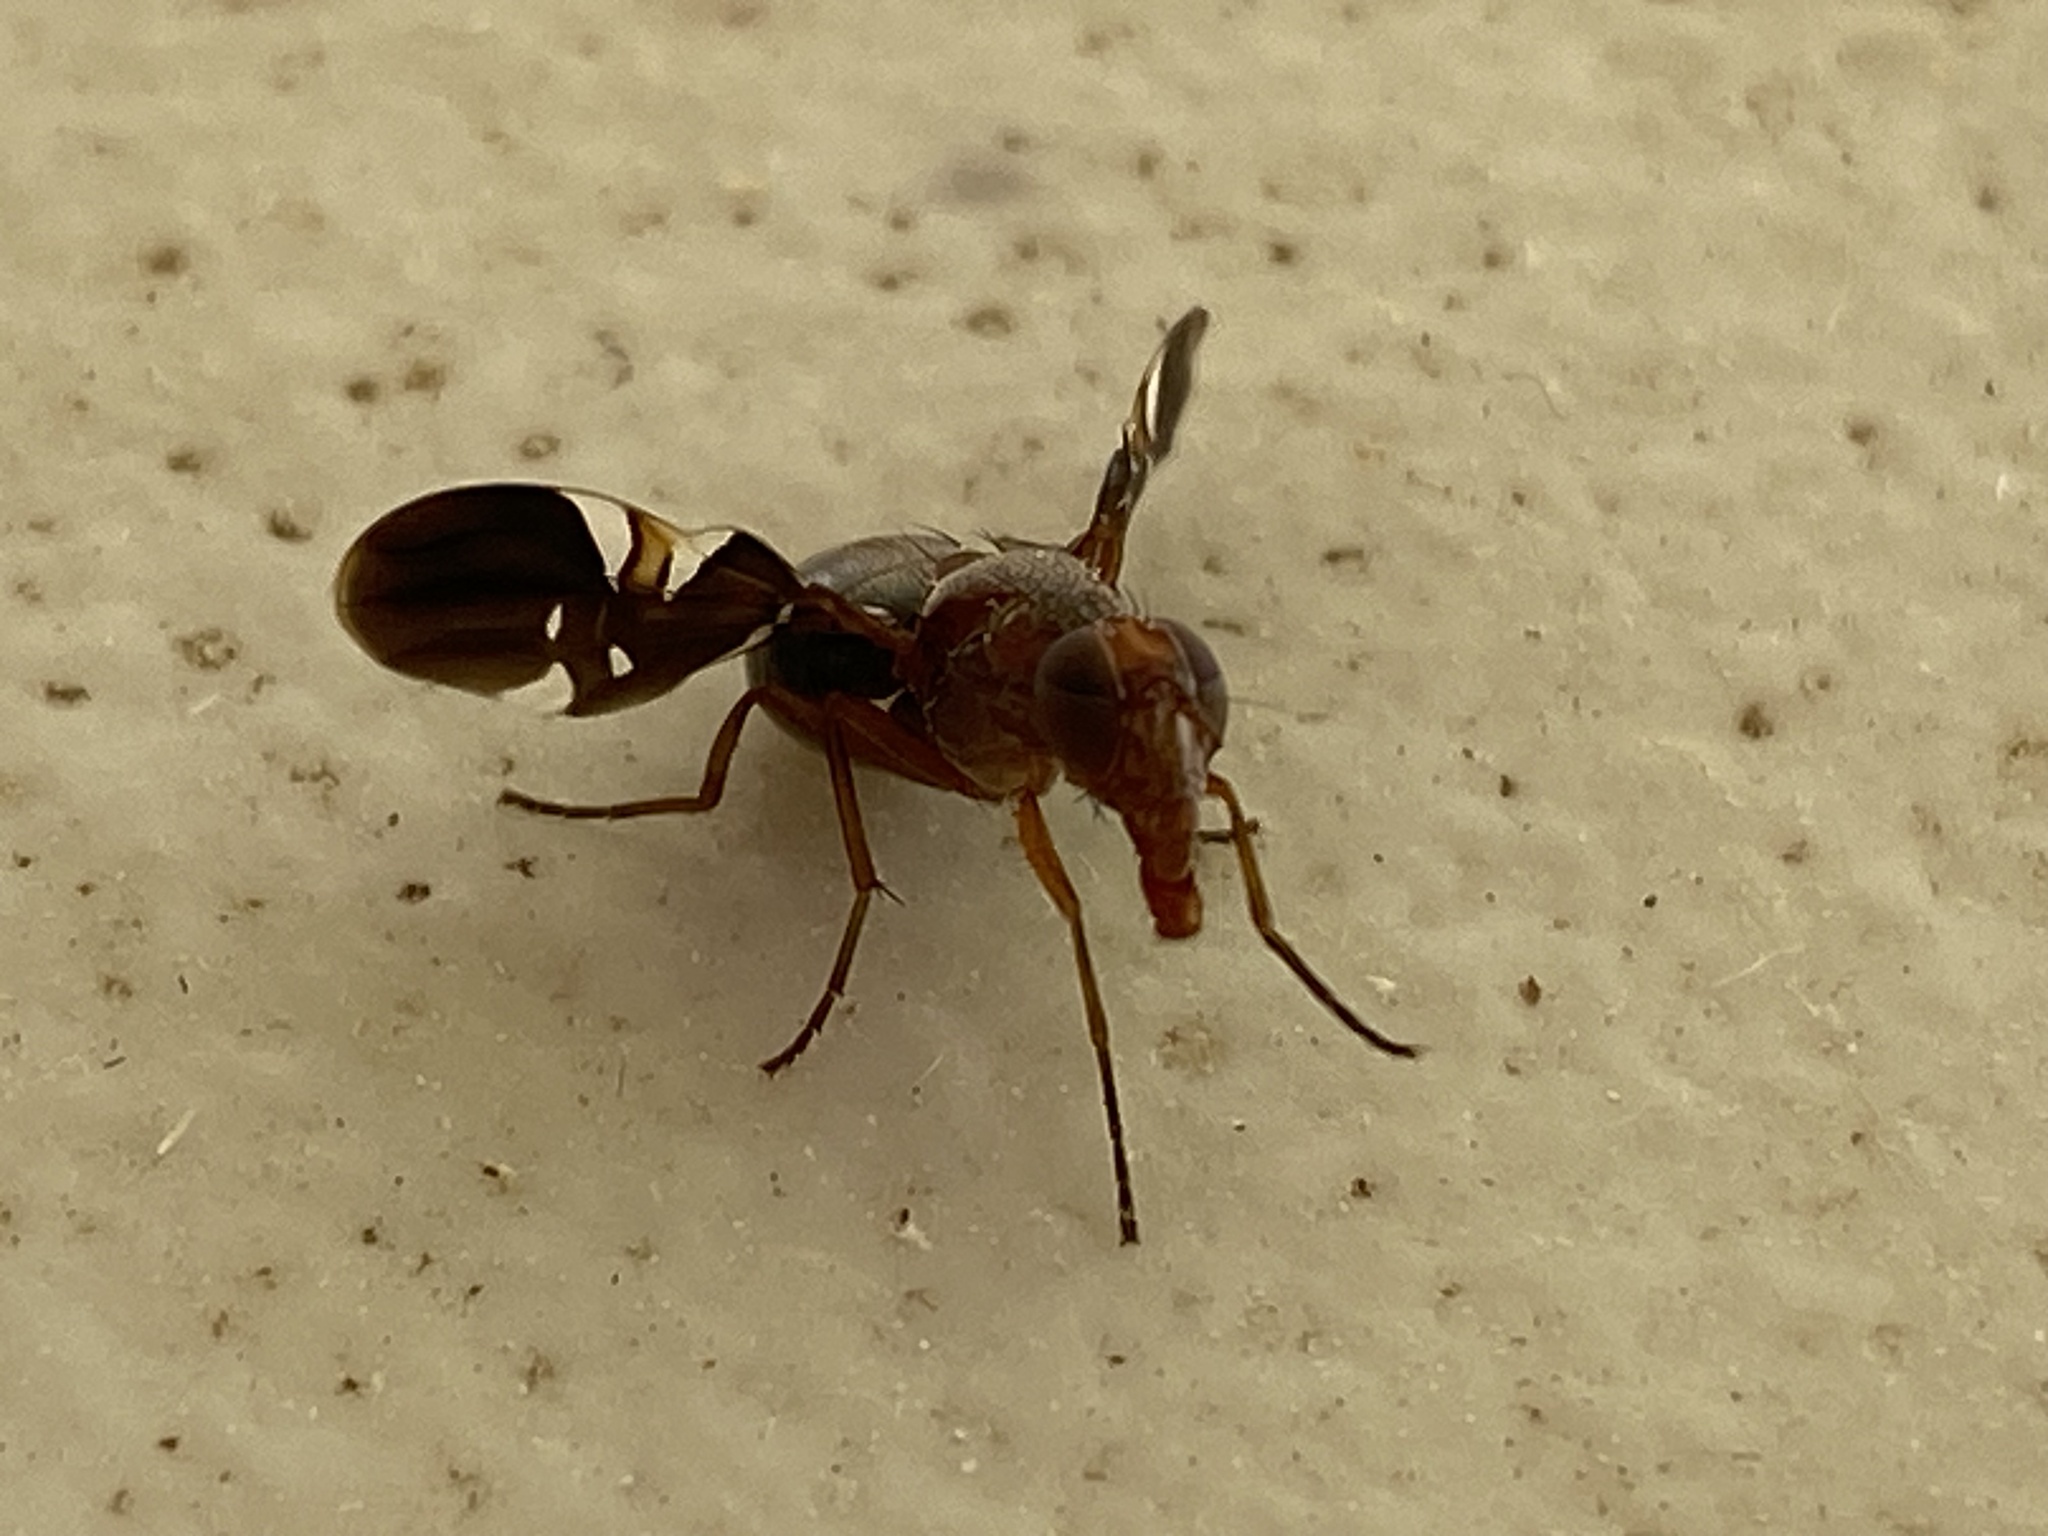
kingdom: Animalia
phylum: Arthropoda
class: Insecta
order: Diptera
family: Ulidiidae
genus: Delphinia
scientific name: Delphinia picta
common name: Common picture-winged fly
